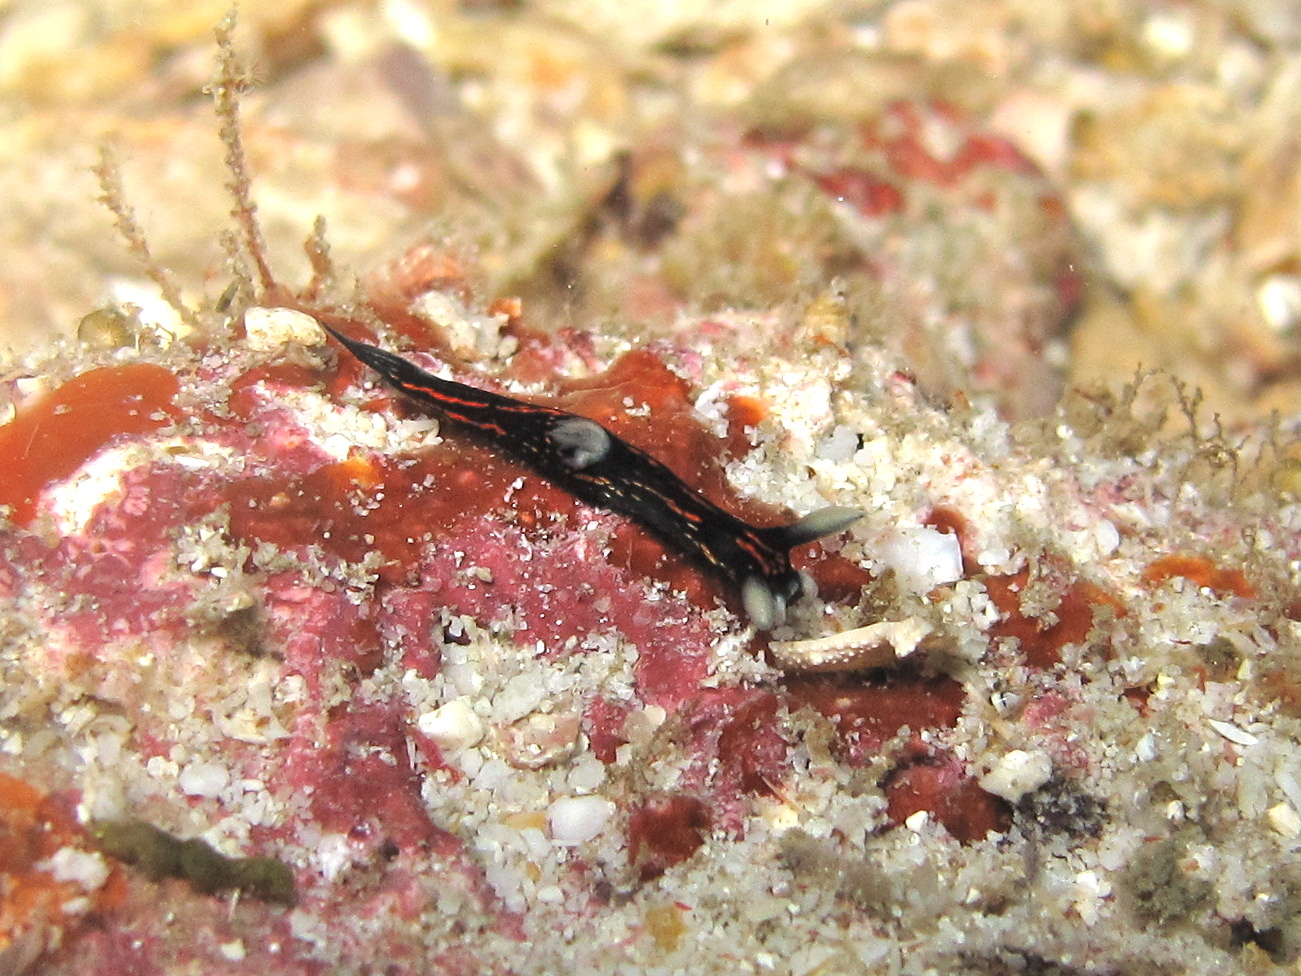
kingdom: Animalia
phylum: Mollusca
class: Gastropoda
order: Nudibranchia
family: Polyceridae
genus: Roboastra
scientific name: Roboastra gracilis
